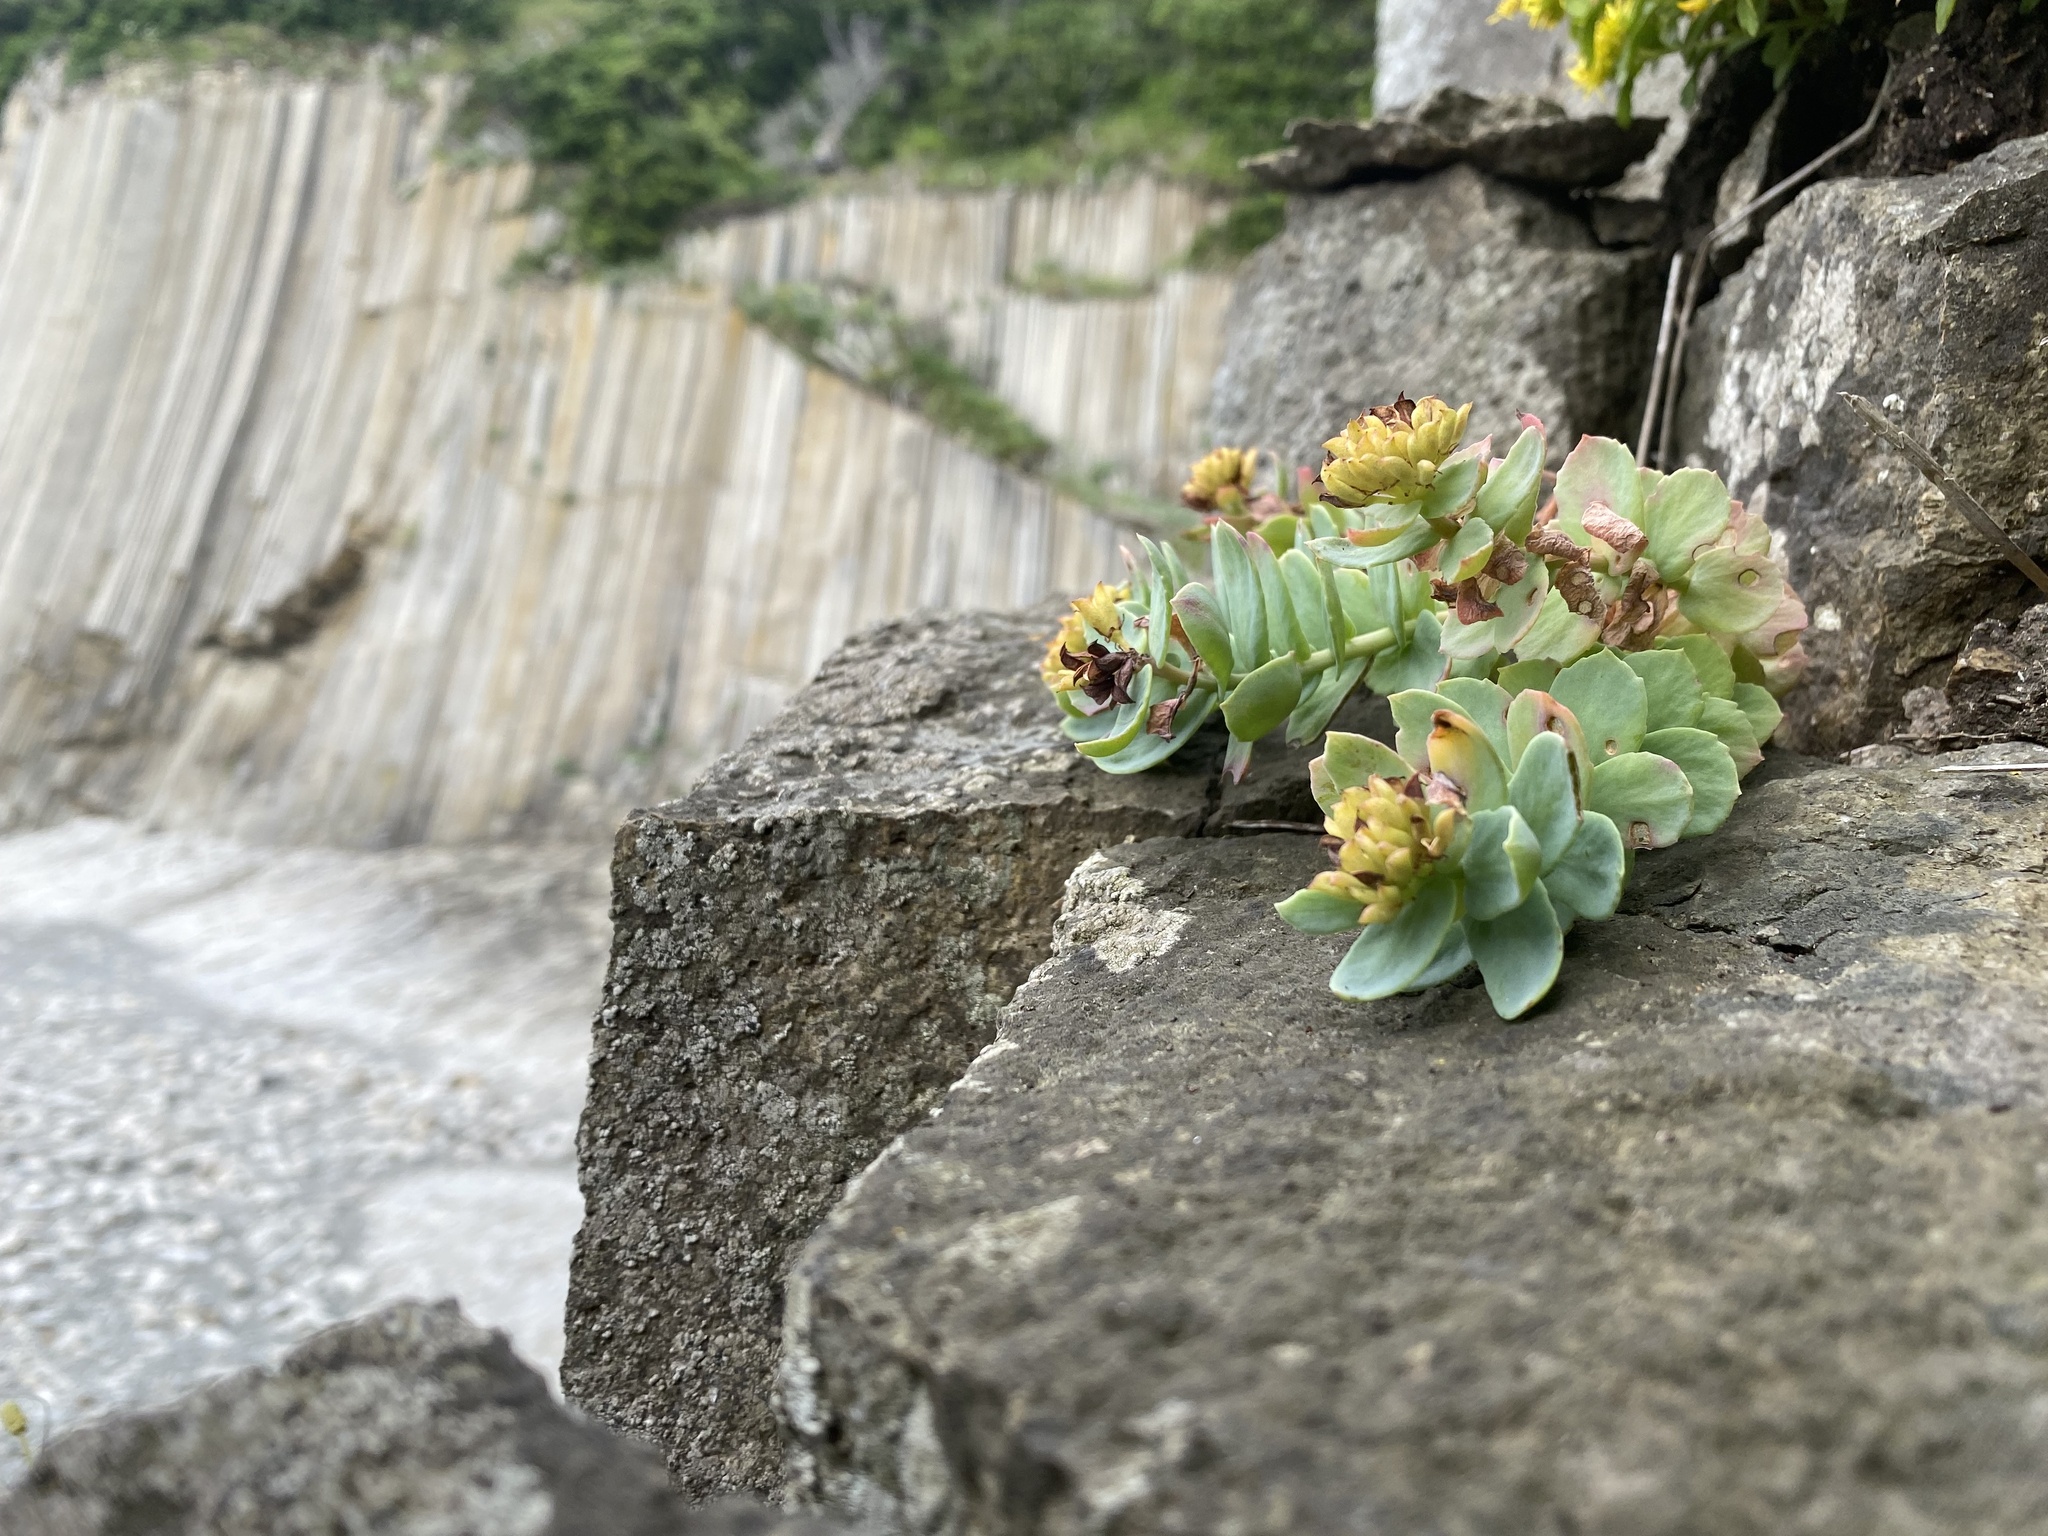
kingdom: Plantae
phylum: Tracheophyta
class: Magnoliopsida
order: Saxifragales
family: Crassulaceae
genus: Rhodiola
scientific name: Rhodiola rosea
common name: Roseroot
